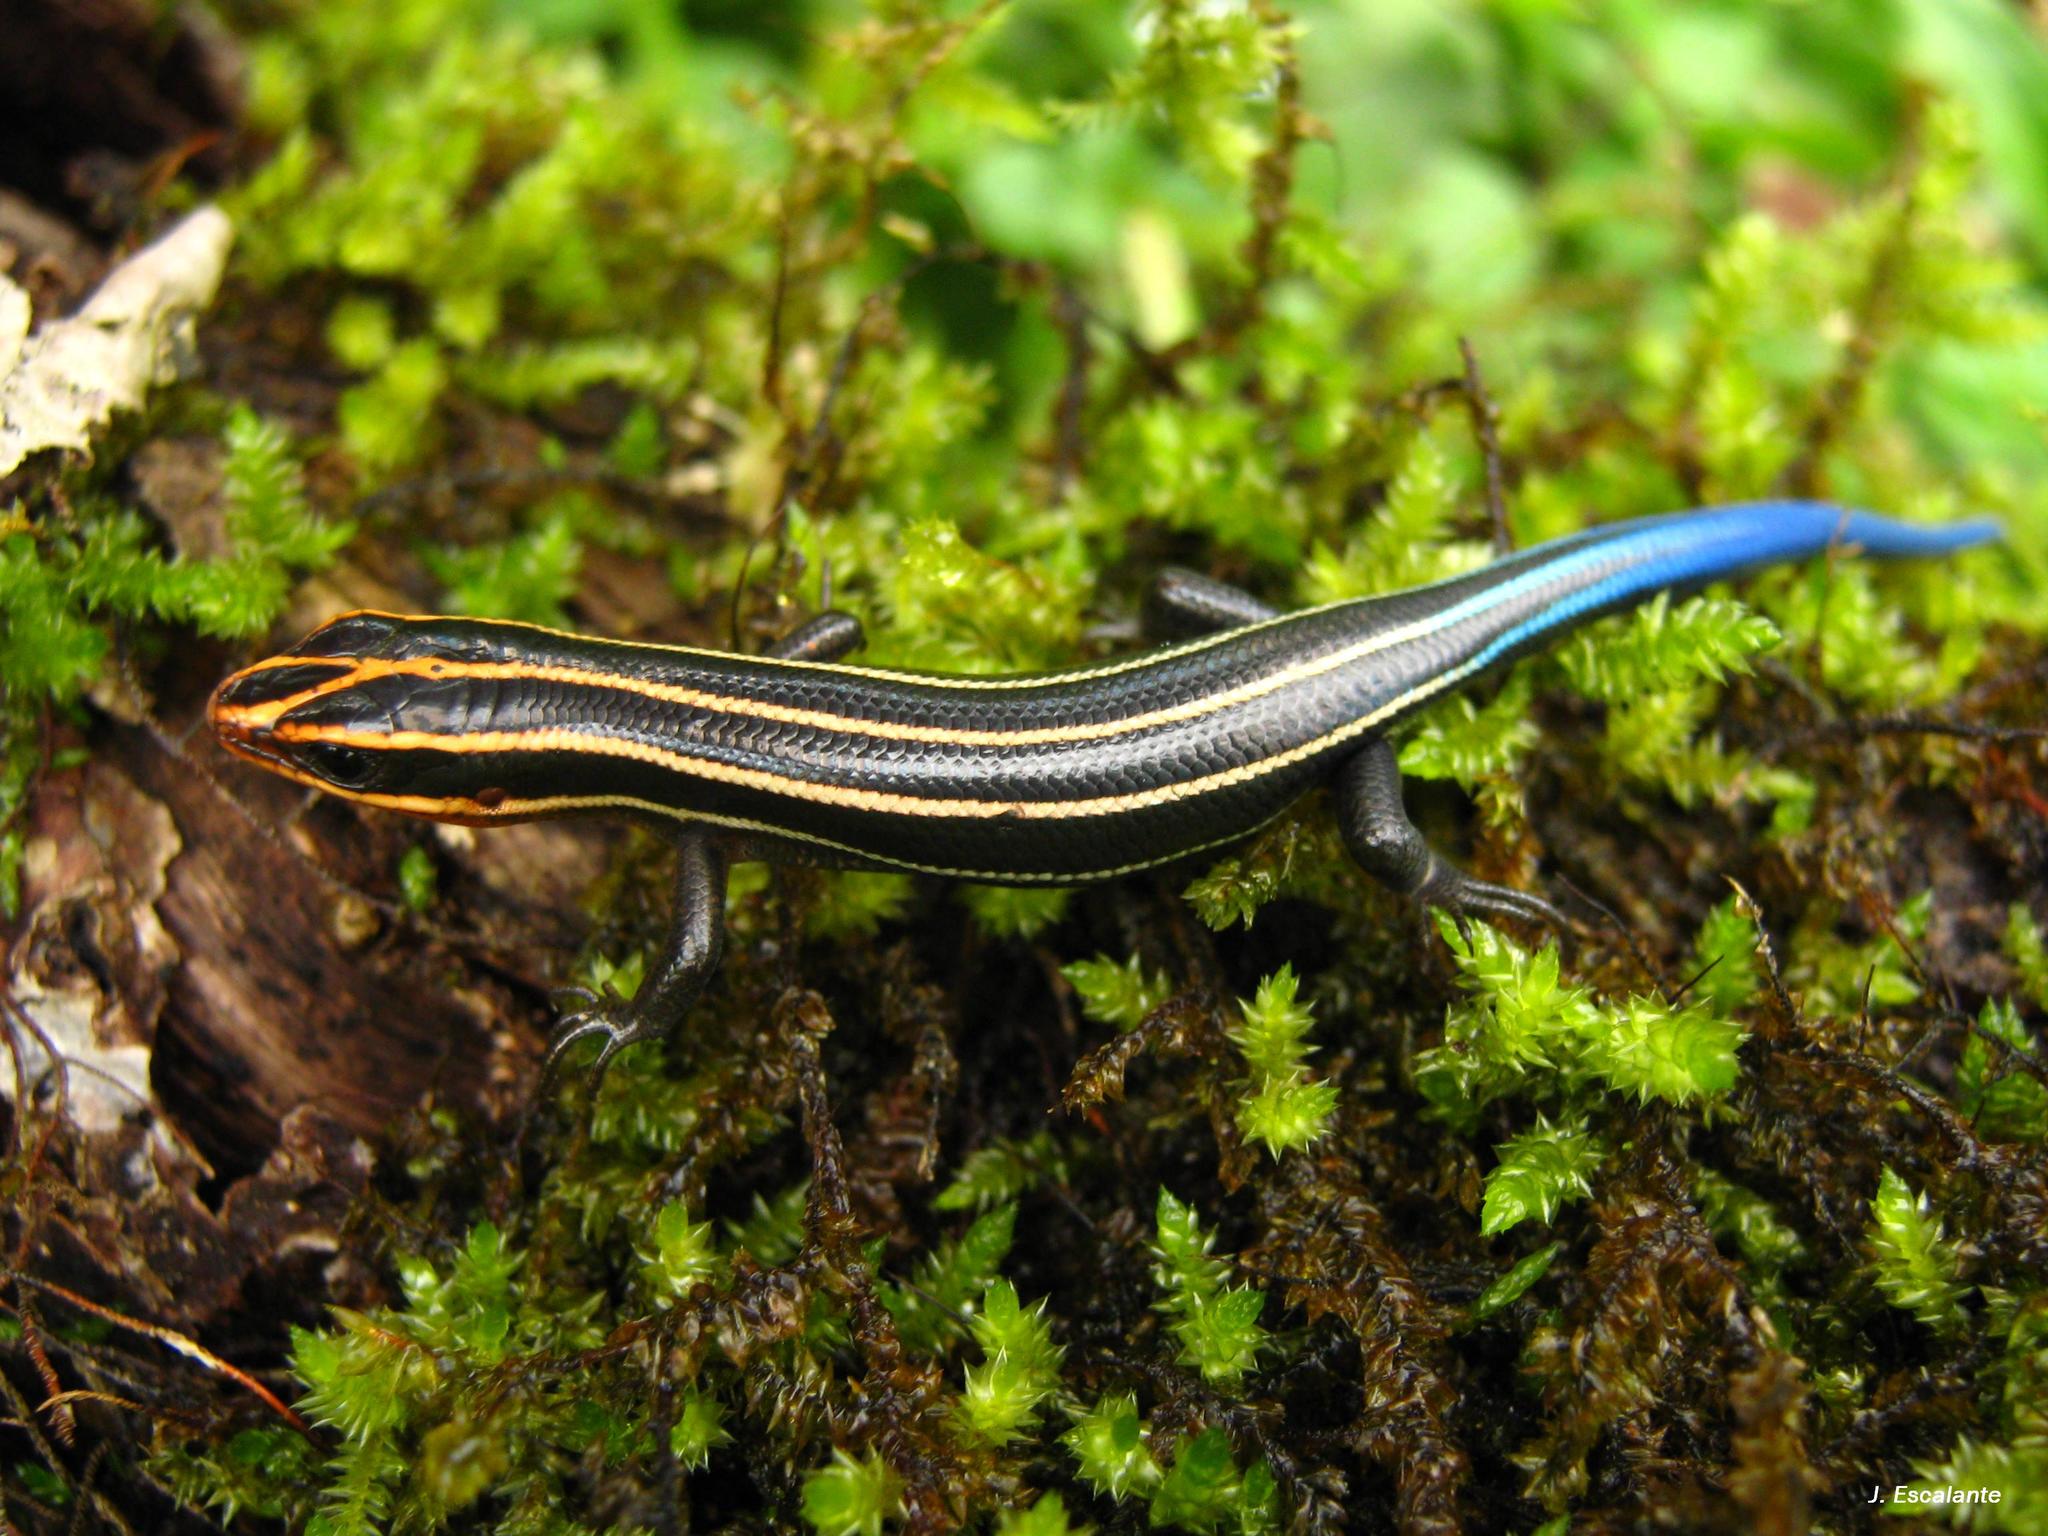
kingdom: Animalia
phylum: Chordata
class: Squamata
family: Scincidae
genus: Plestiodon
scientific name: Plestiodon sumichrasti
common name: Sumichrast's skink
